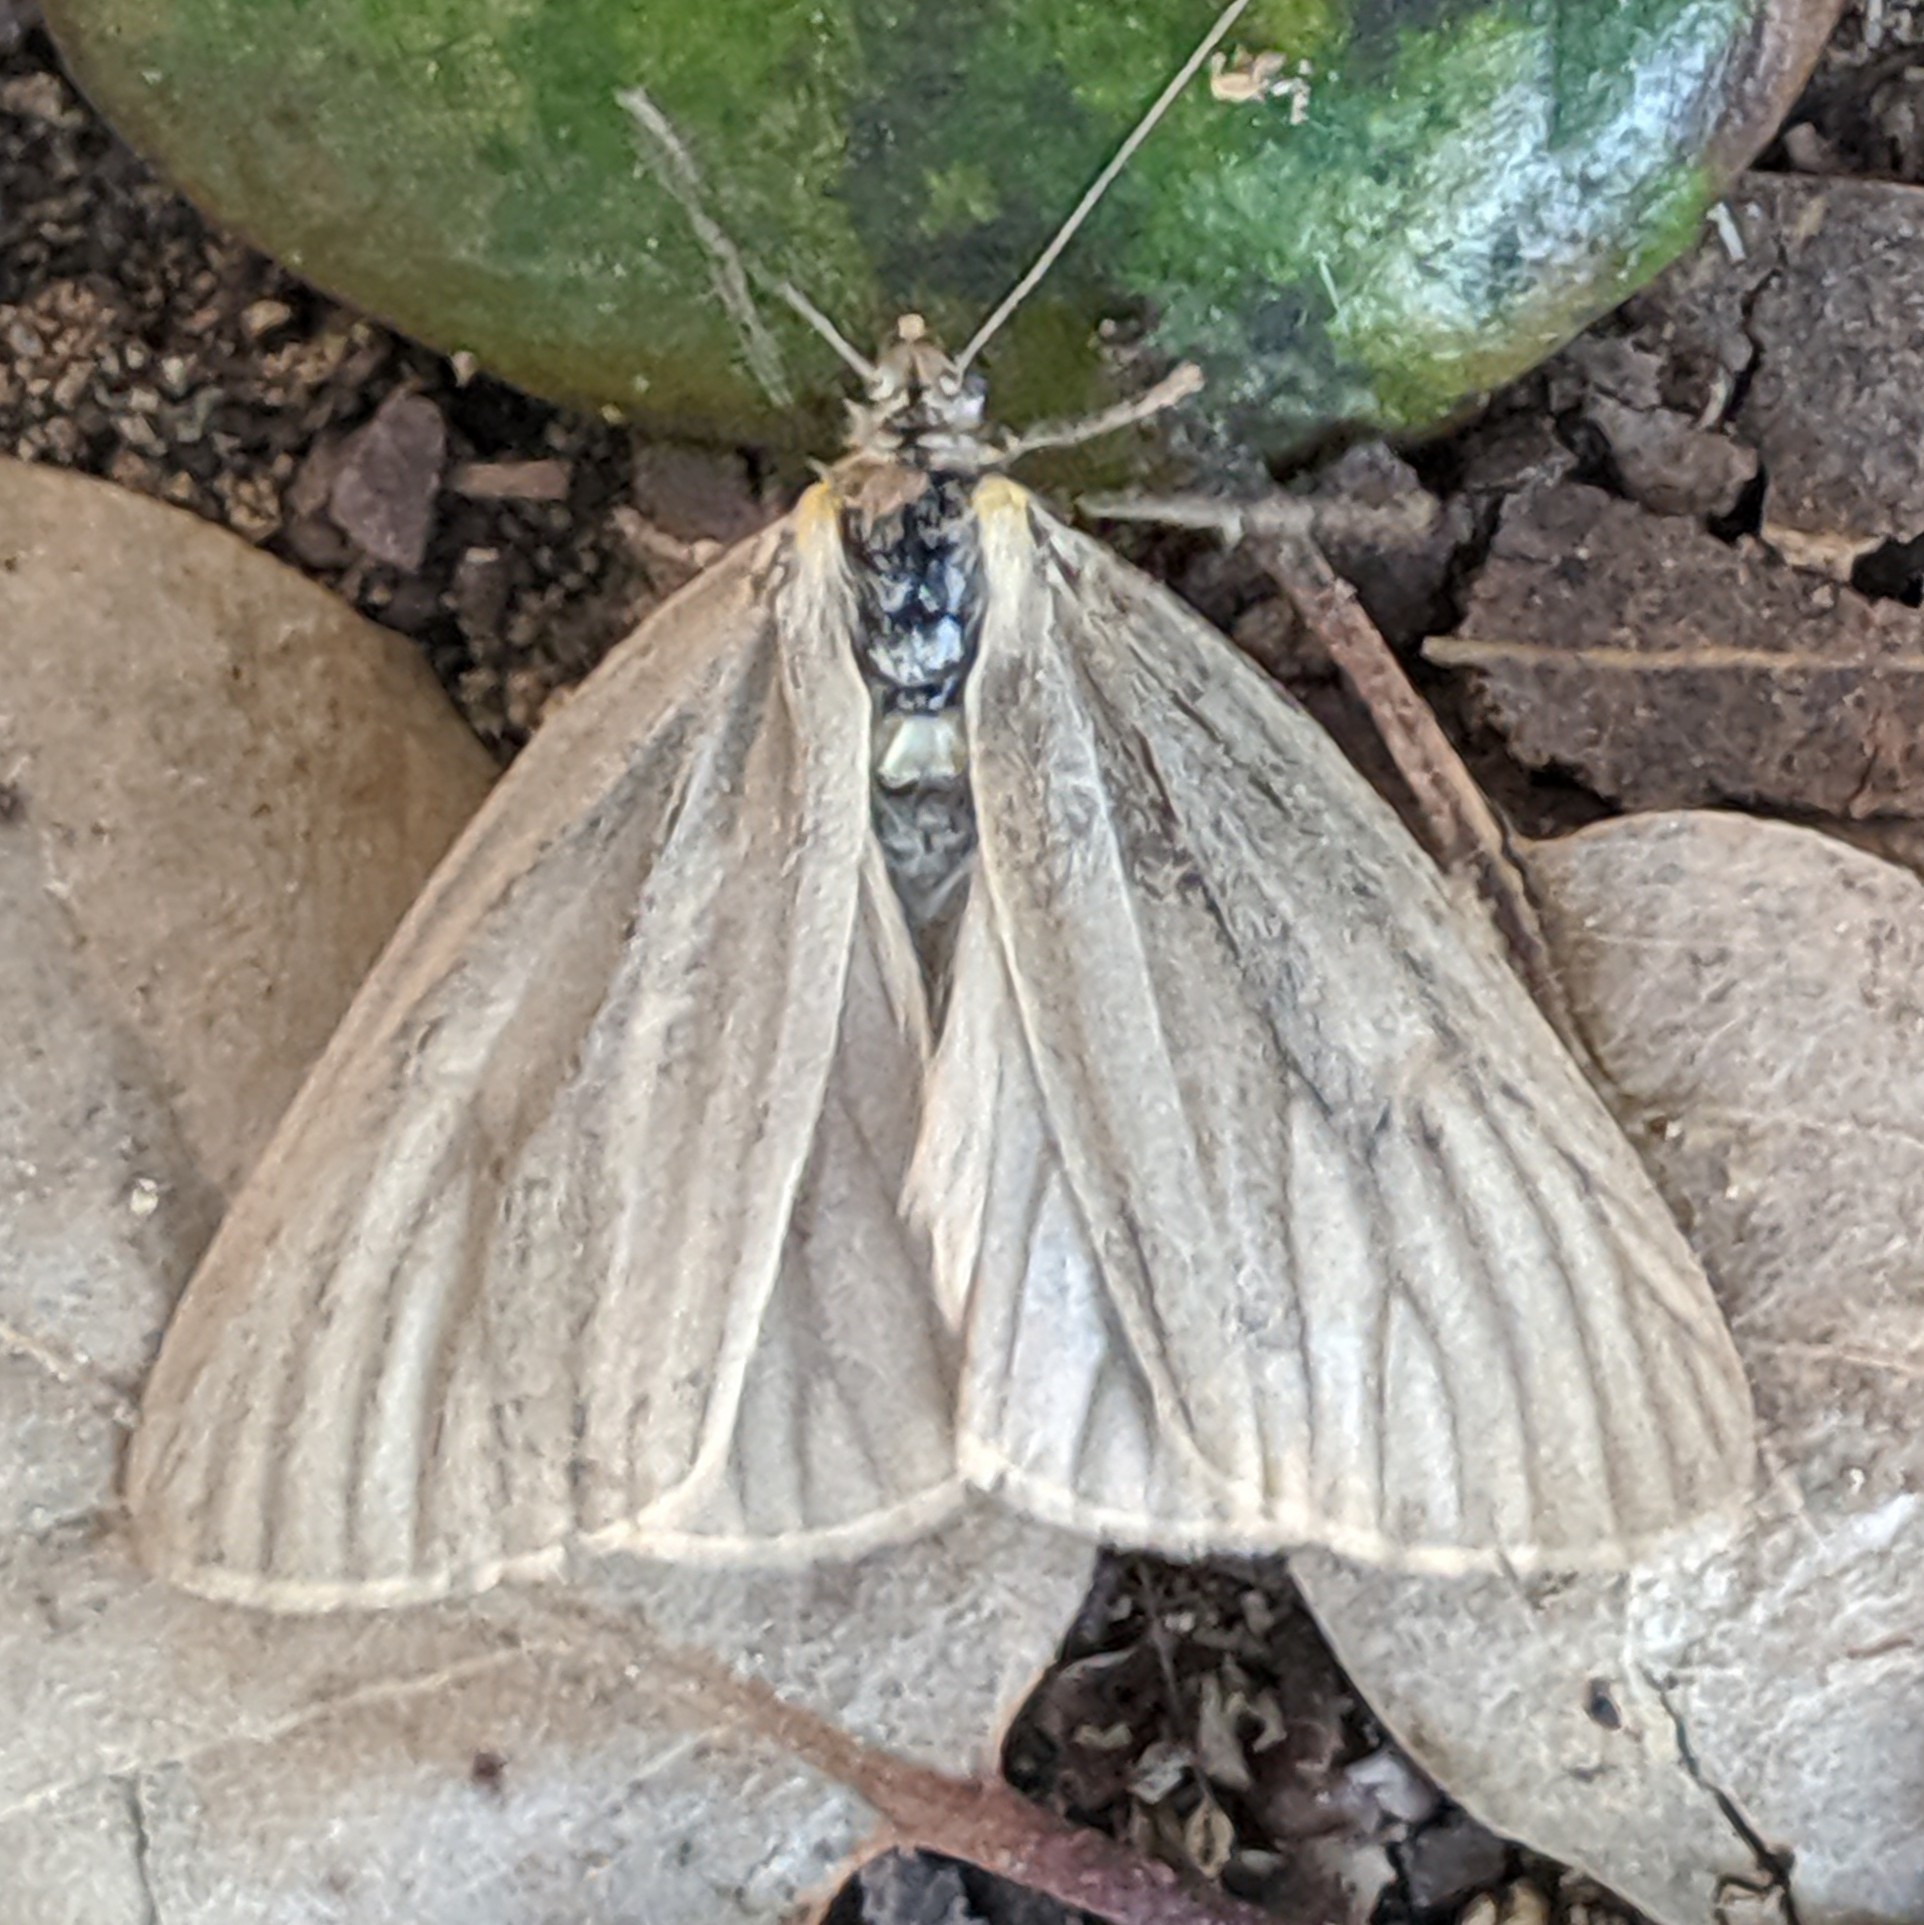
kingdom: Animalia
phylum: Arthropoda
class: Insecta
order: Lepidoptera
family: Notodontidae
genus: Phryganidia
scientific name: Phryganidia californica
